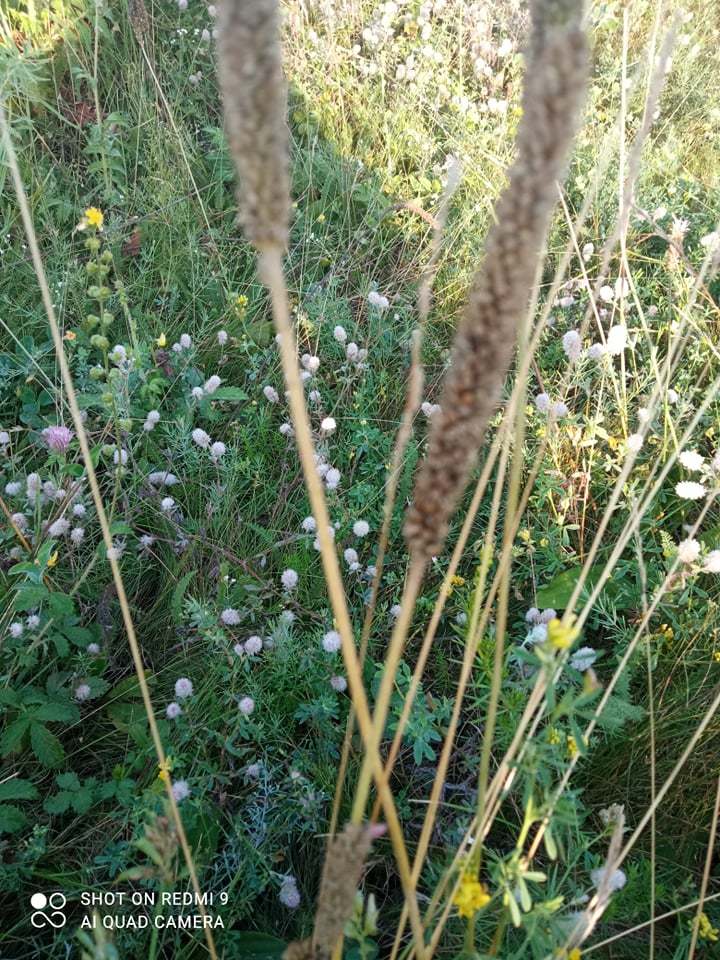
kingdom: Plantae
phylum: Tracheophyta
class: Magnoliopsida
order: Lamiales
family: Plantaginaceae
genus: Plantago
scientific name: Plantago urvillei
